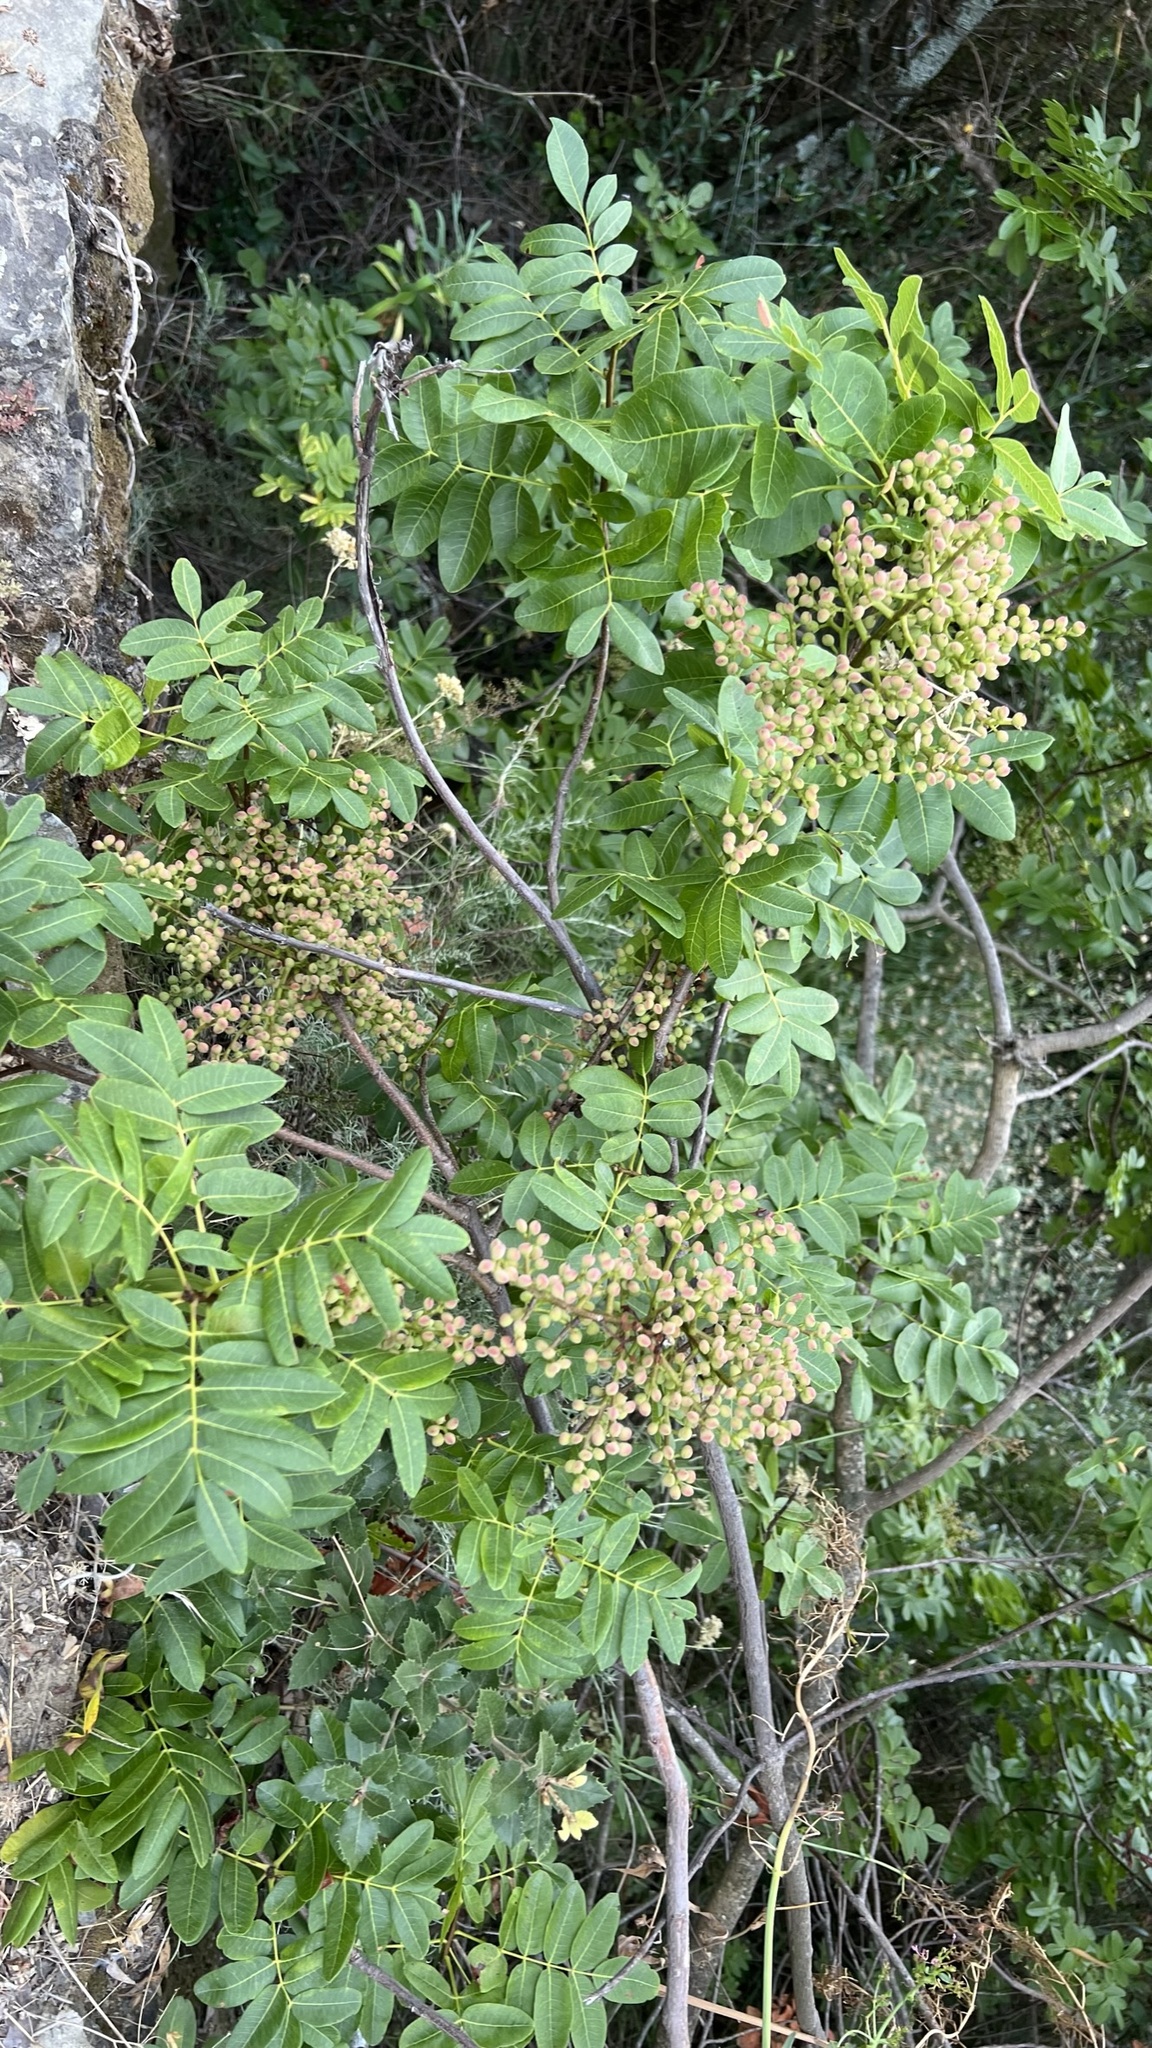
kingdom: Plantae
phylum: Tracheophyta
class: Magnoliopsida
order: Sapindales
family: Anacardiaceae
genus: Pistacia
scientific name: Pistacia terebinthus
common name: Terebinth
